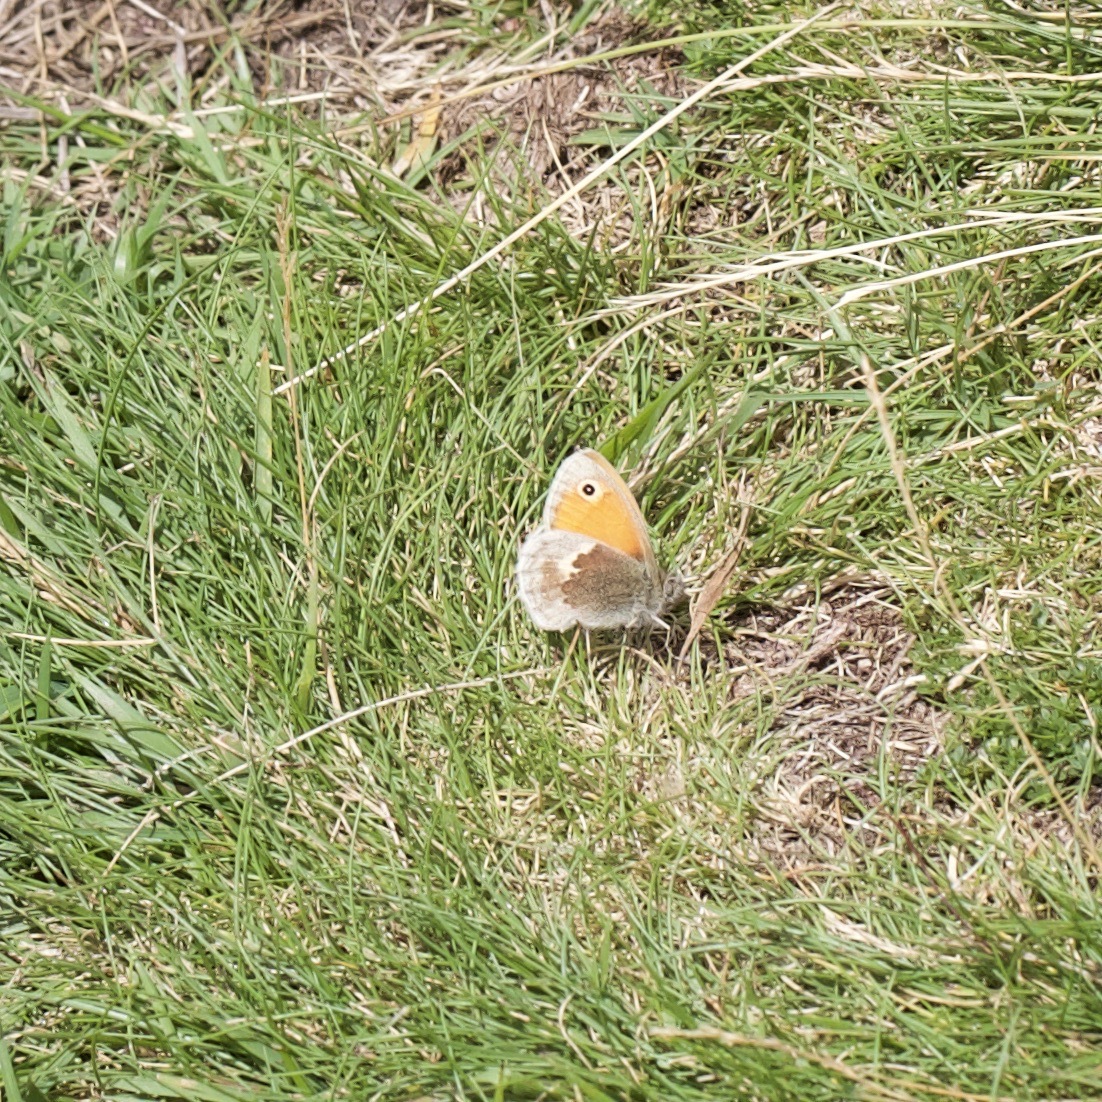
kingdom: Animalia
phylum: Arthropoda
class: Insecta
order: Lepidoptera
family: Nymphalidae
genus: Coenonympha
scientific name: Coenonympha pamphilus
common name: Small heath
